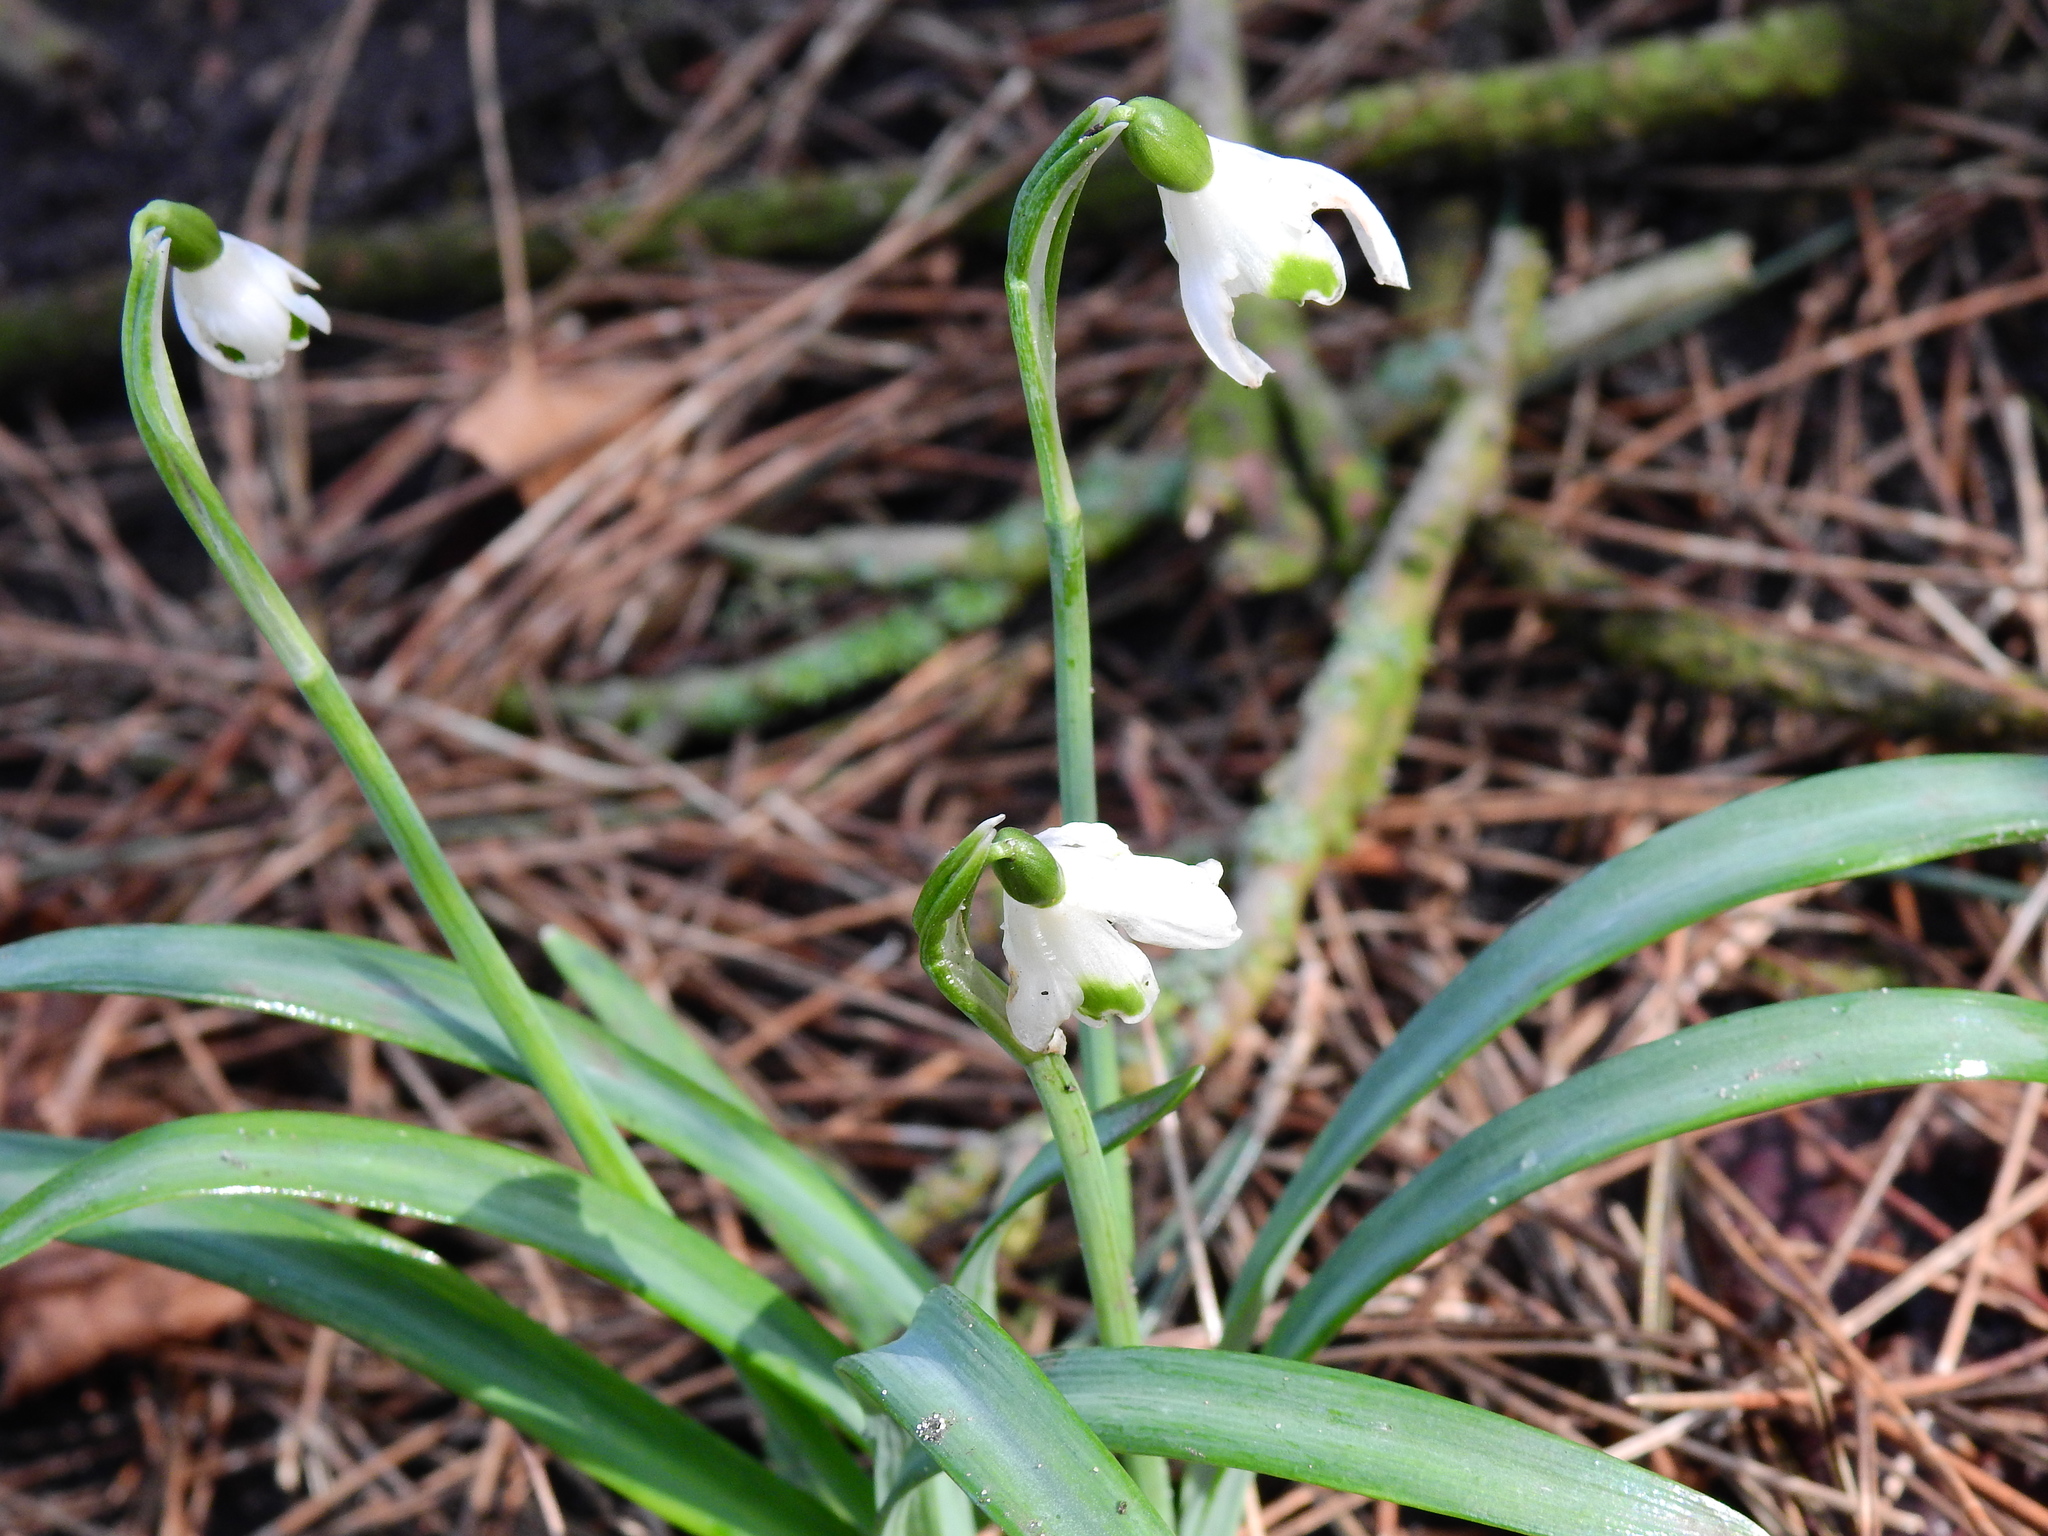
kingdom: Plantae
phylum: Tracheophyta
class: Liliopsida
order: Asparagales
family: Amaryllidaceae
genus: Galanthus
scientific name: Galanthus nivalis
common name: Snowdrop
